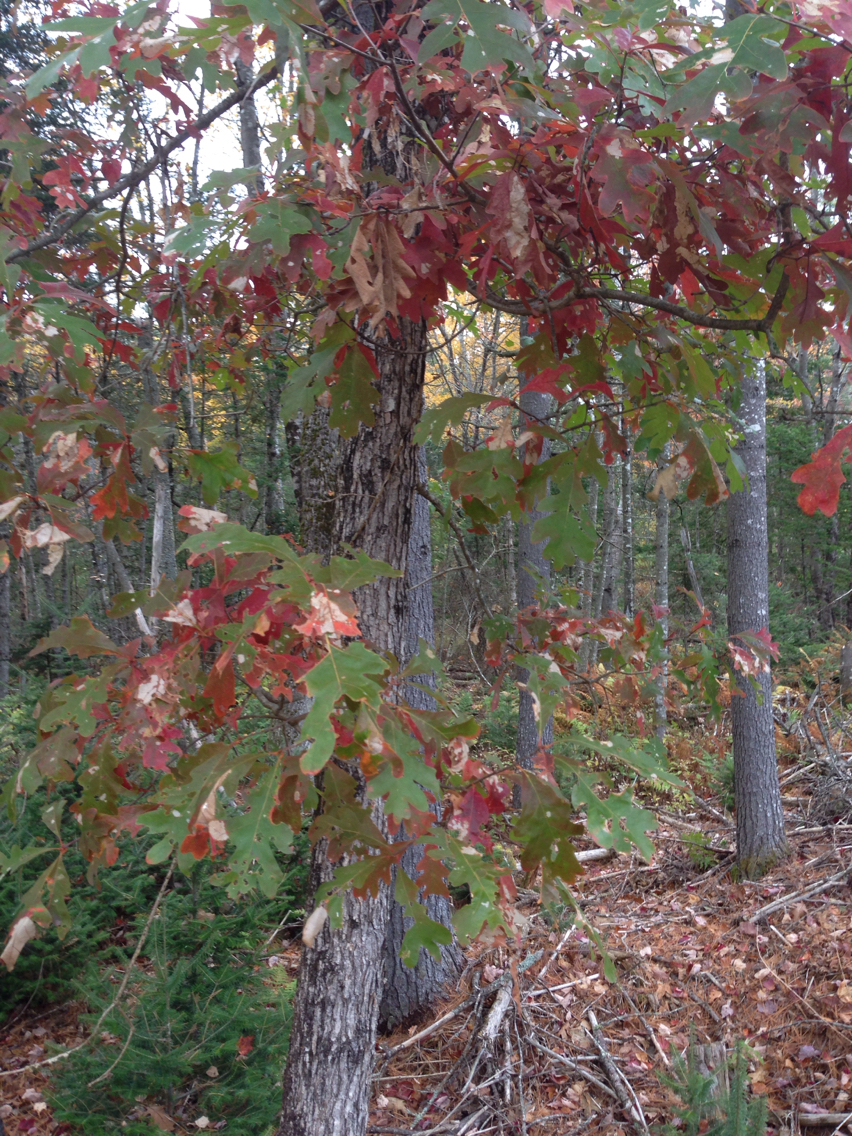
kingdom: Plantae
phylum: Tracheophyta
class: Magnoliopsida
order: Fagales
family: Fagaceae
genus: Quercus
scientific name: Quercus alba
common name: White oak
